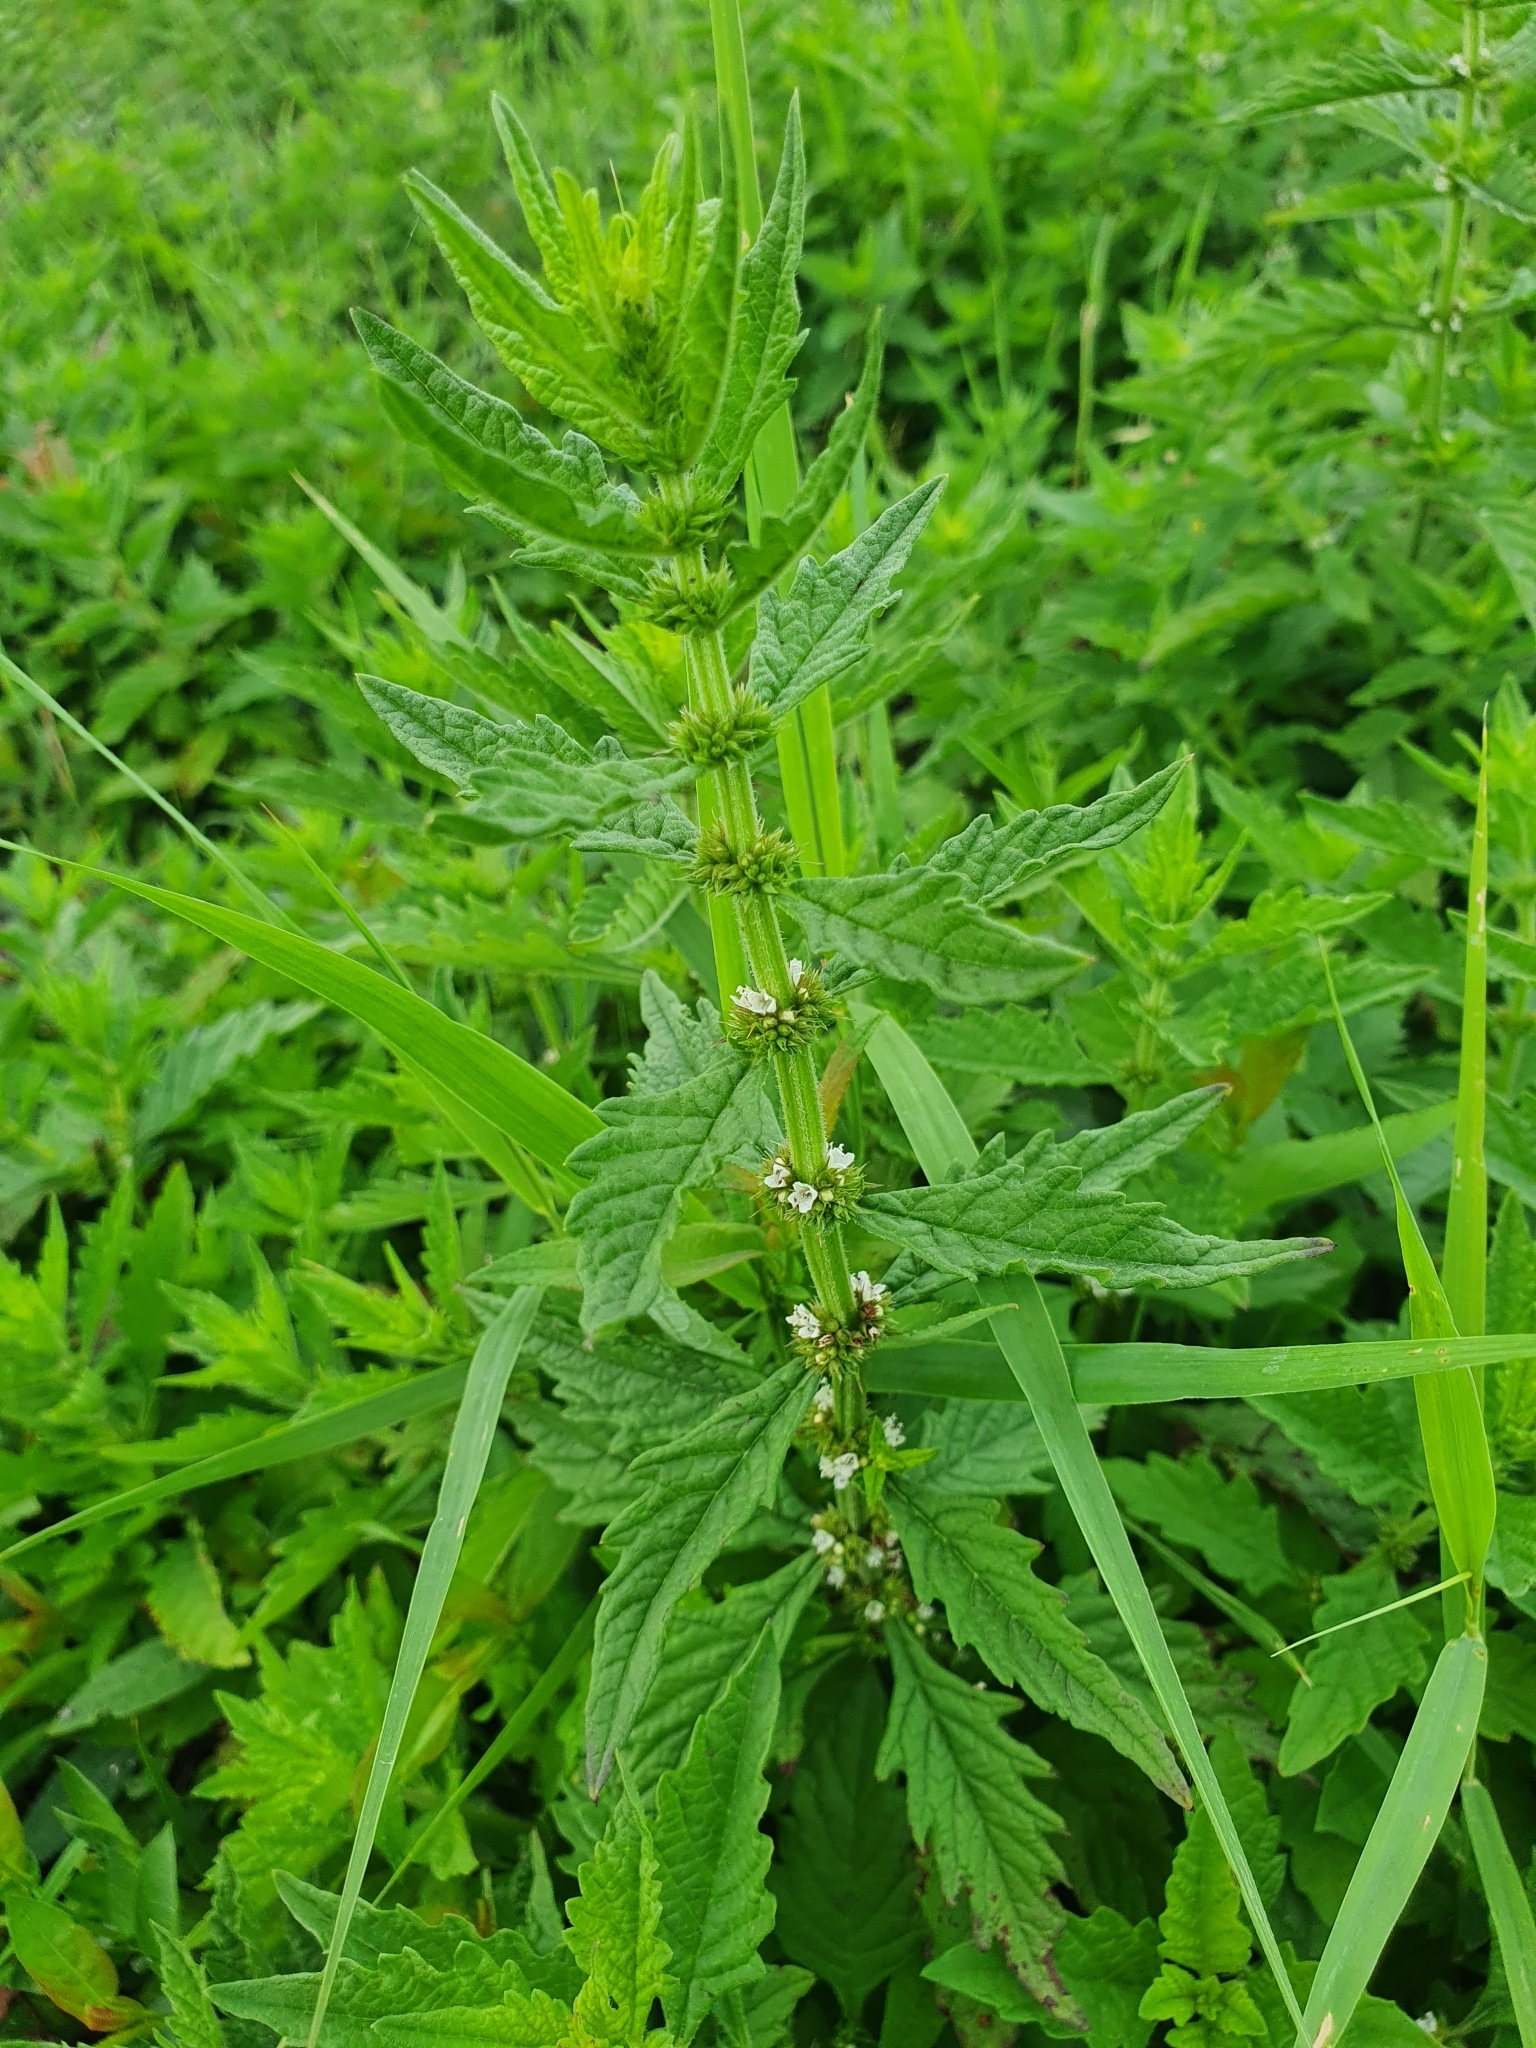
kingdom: Plantae
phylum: Tracheophyta
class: Magnoliopsida
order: Lamiales
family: Lamiaceae
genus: Lycopus
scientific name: Lycopus europaeus
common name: European bugleweed
